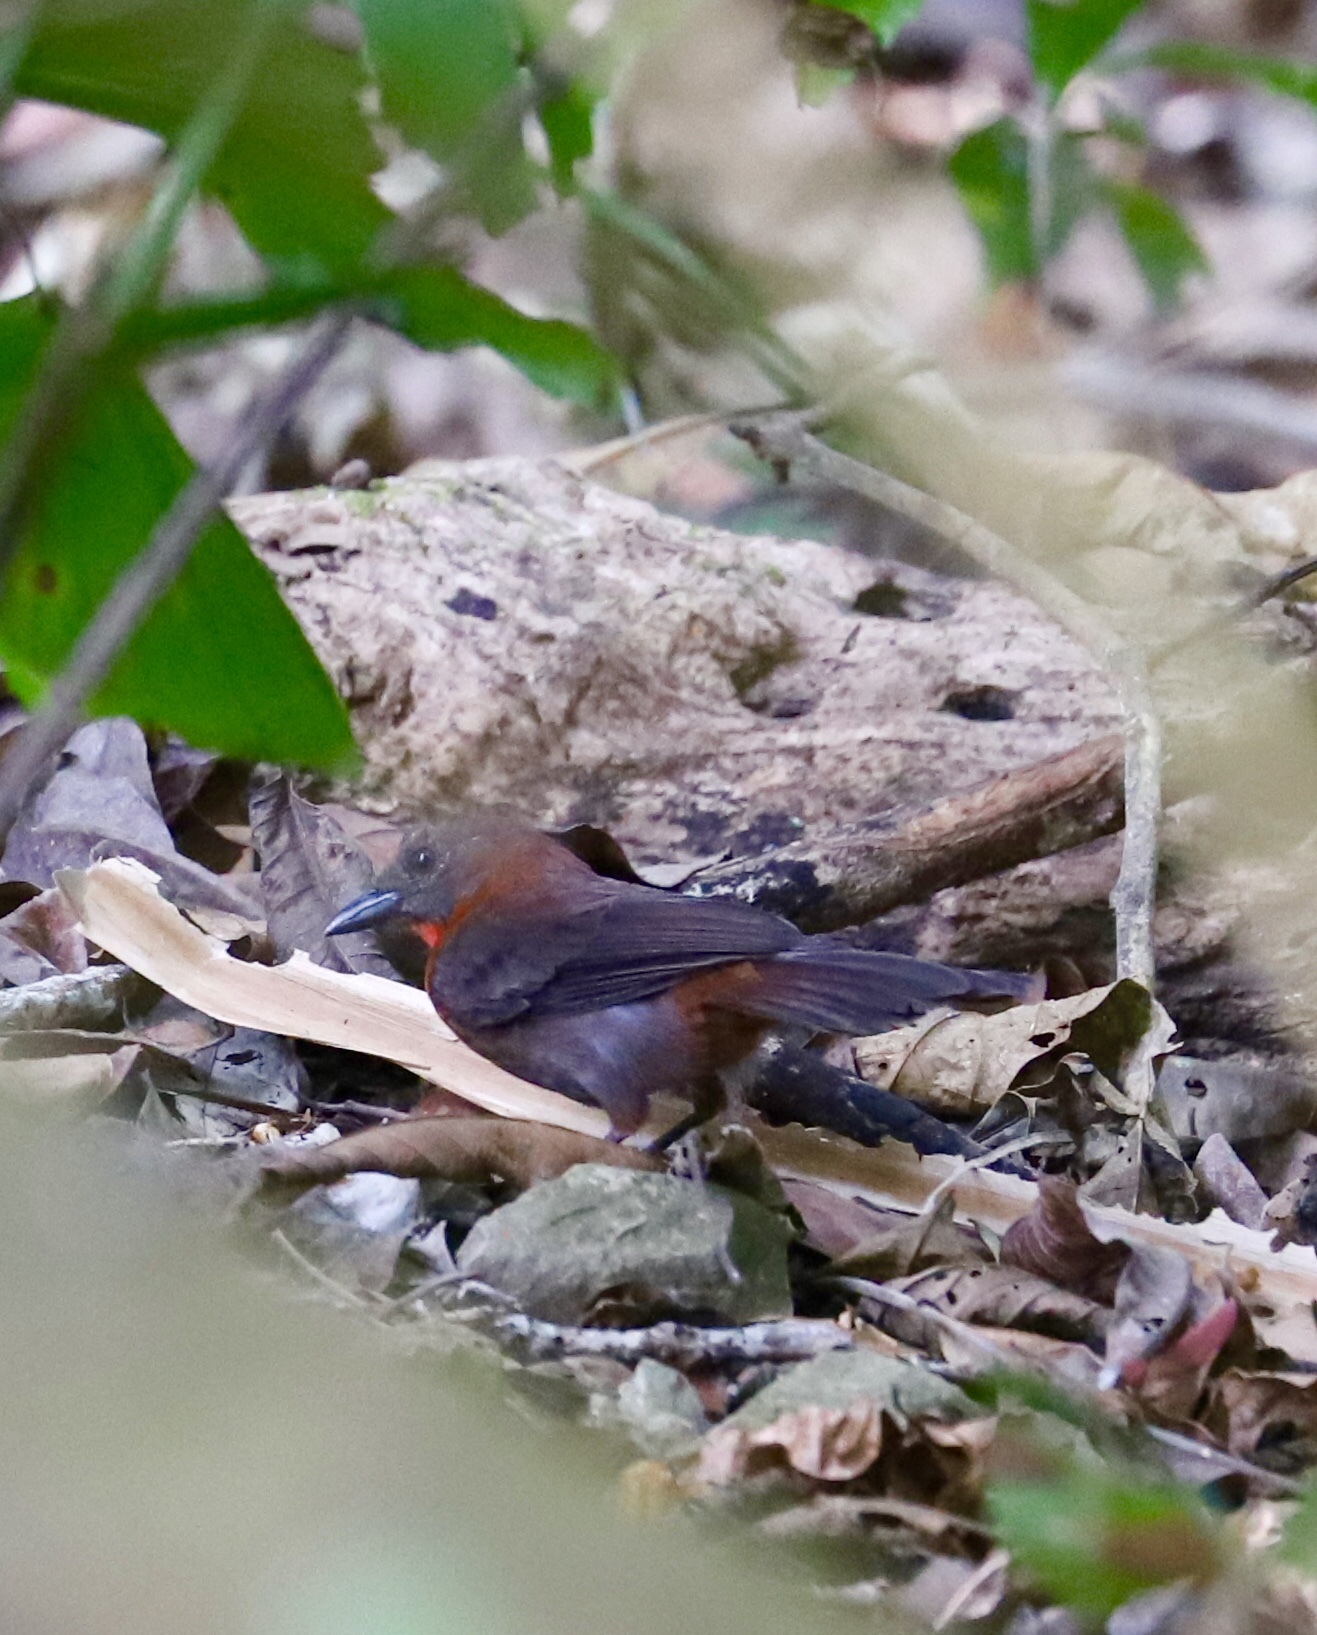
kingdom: Animalia
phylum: Chordata
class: Aves
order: Passeriformes
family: Cardinalidae
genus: Habia
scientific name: Habia fuscicauda
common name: Red-throated ant-tanager
